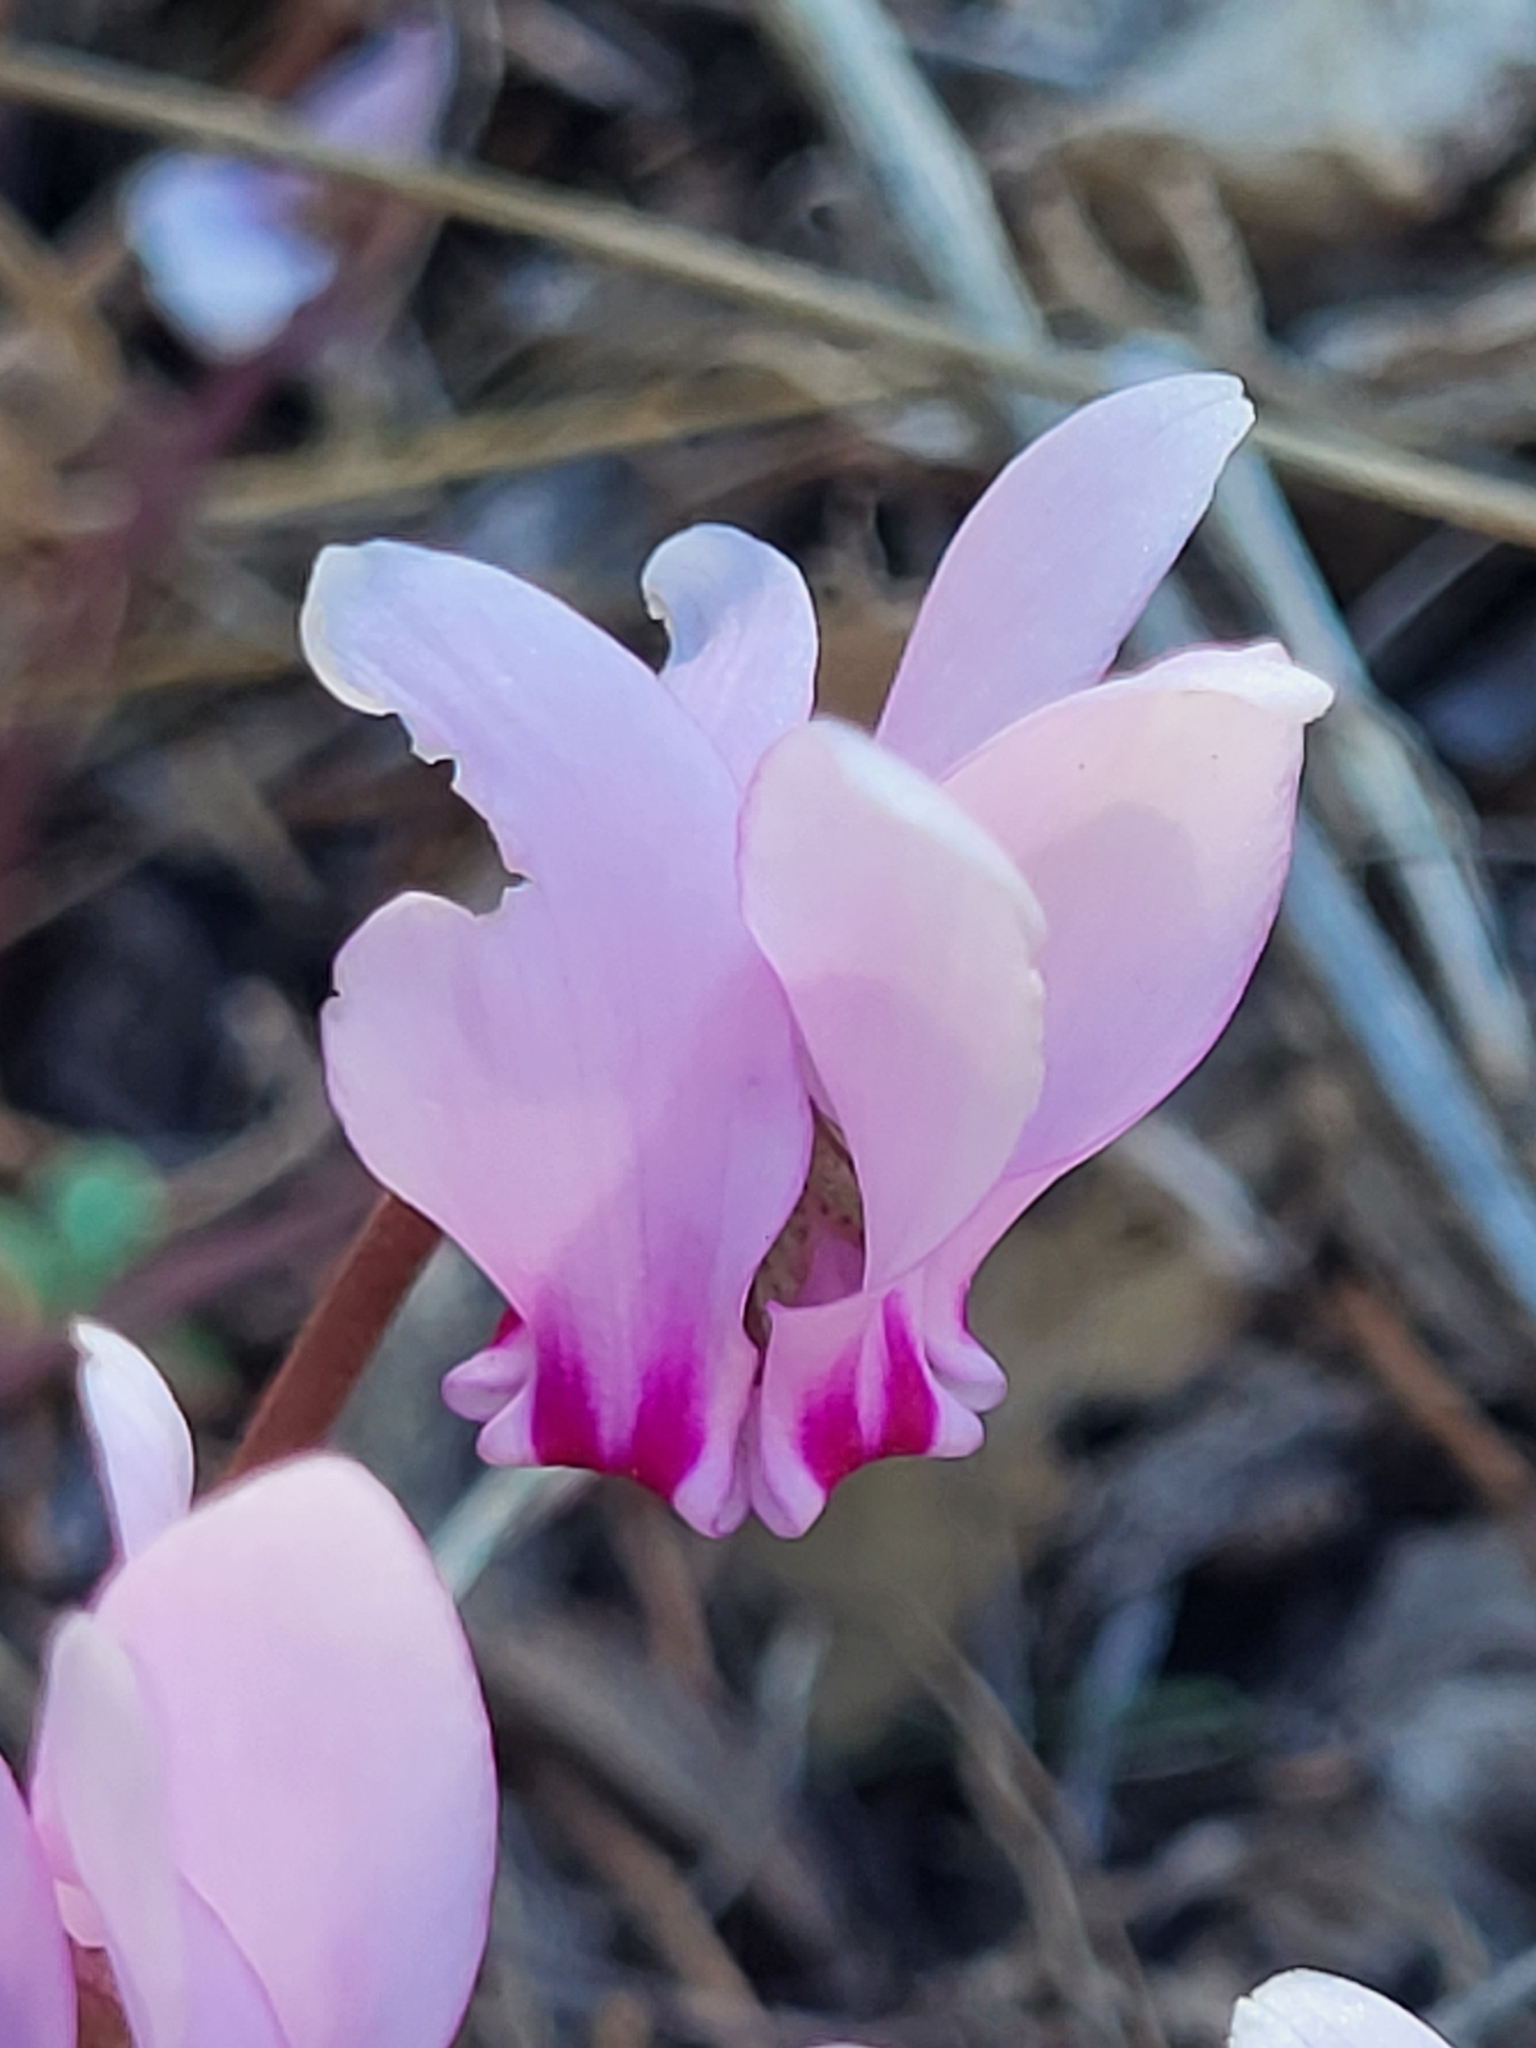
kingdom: Plantae
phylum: Tracheophyta
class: Magnoliopsida
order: Ericales
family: Primulaceae
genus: Cyclamen
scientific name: Cyclamen hederifolium
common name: Sowbread
